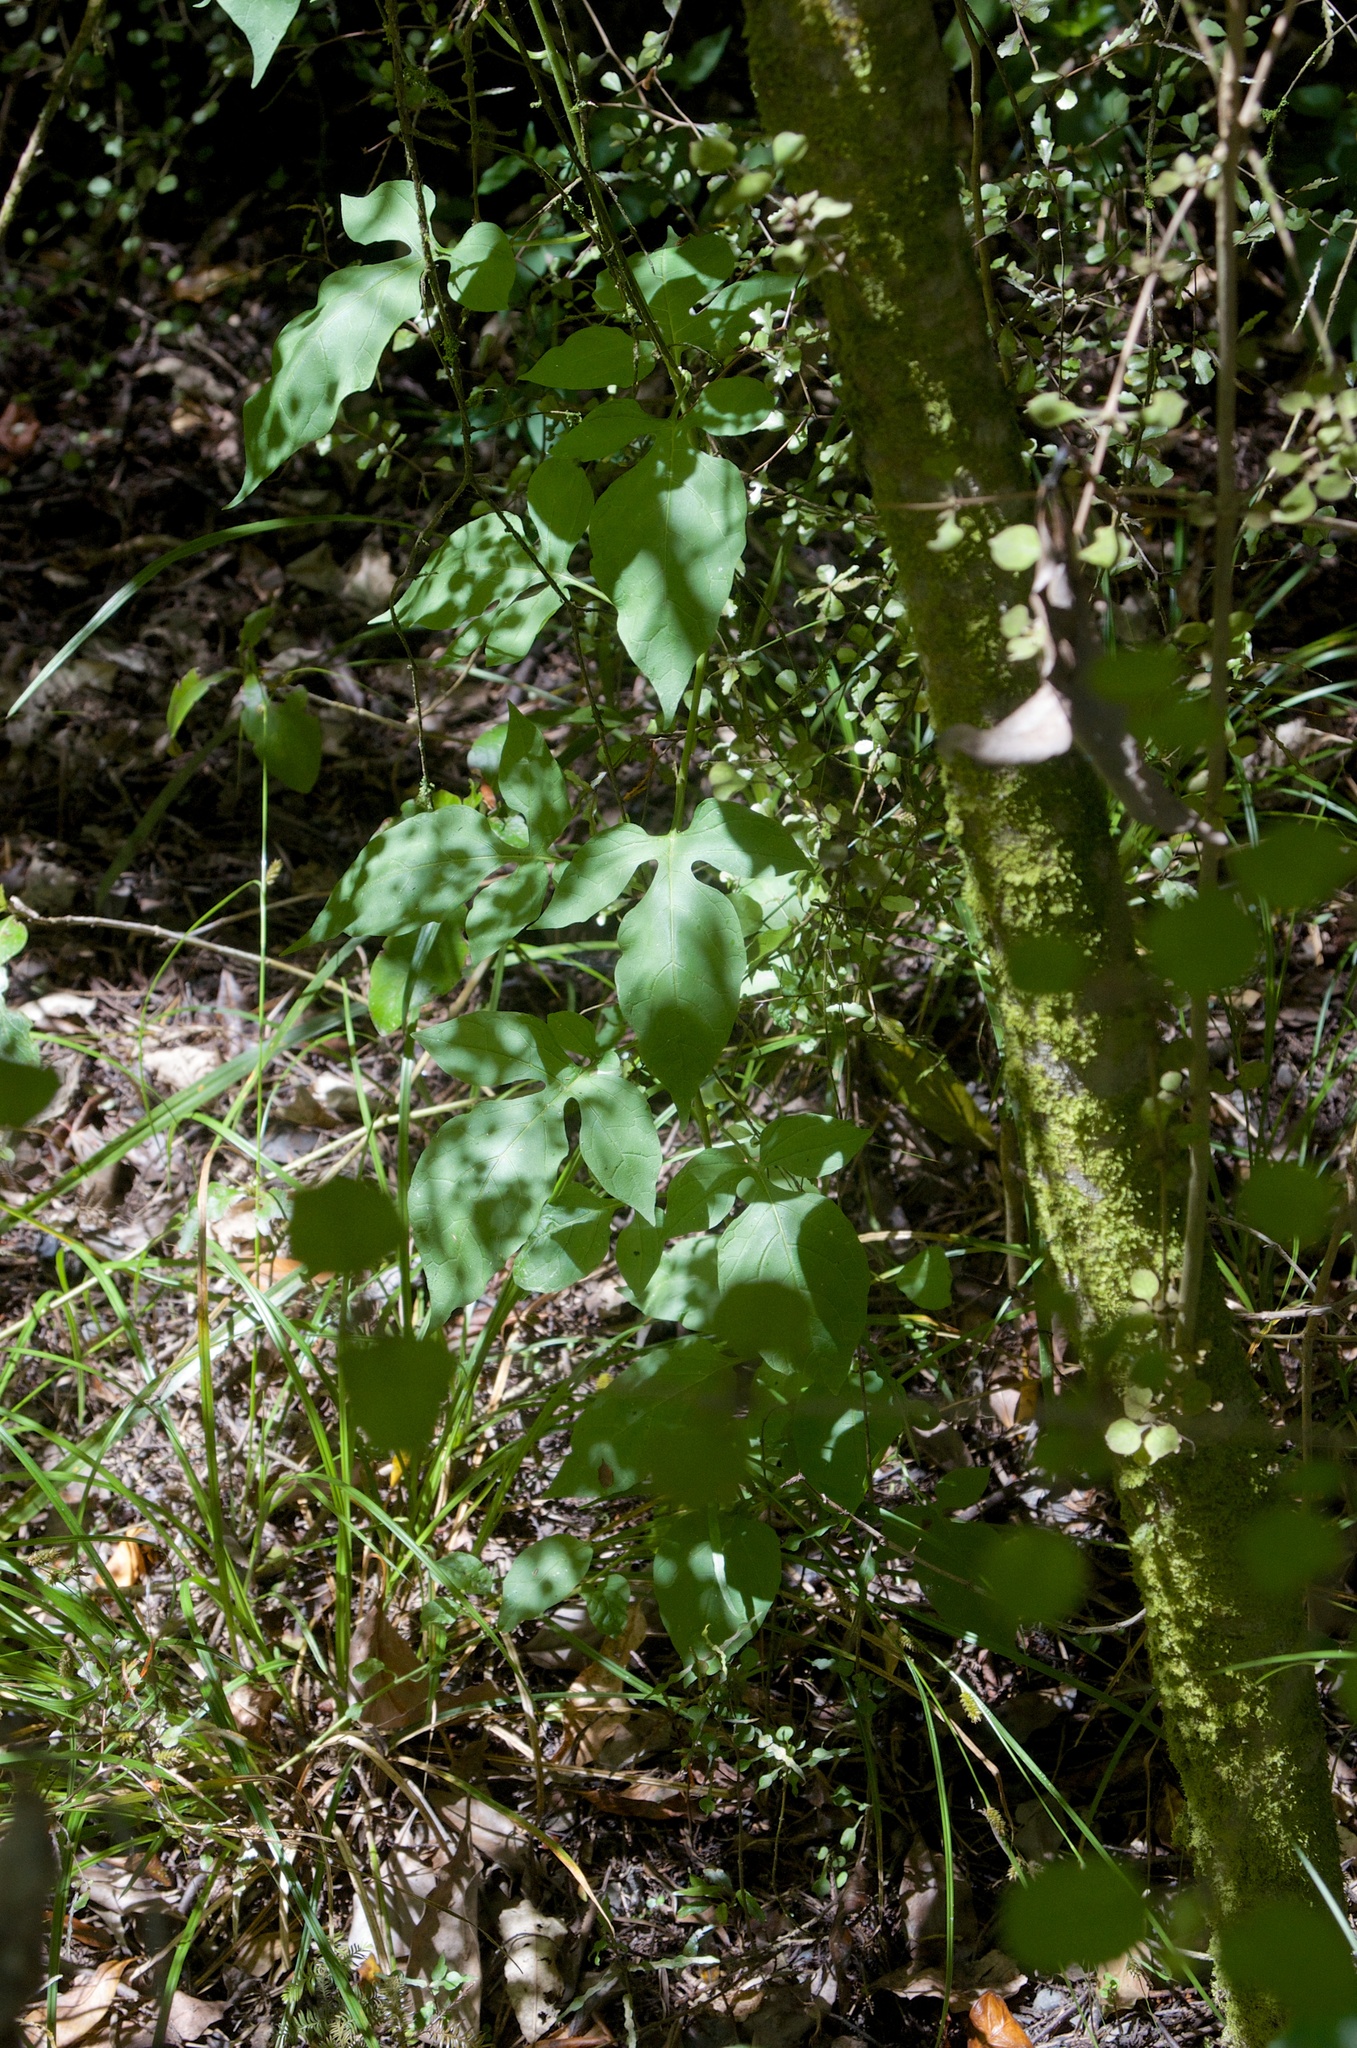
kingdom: Plantae
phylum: Tracheophyta
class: Magnoliopsida
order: Solanales
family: Solanaceae
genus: Solanum
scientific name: Solanum dulcamara
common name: Climbing nightshade
